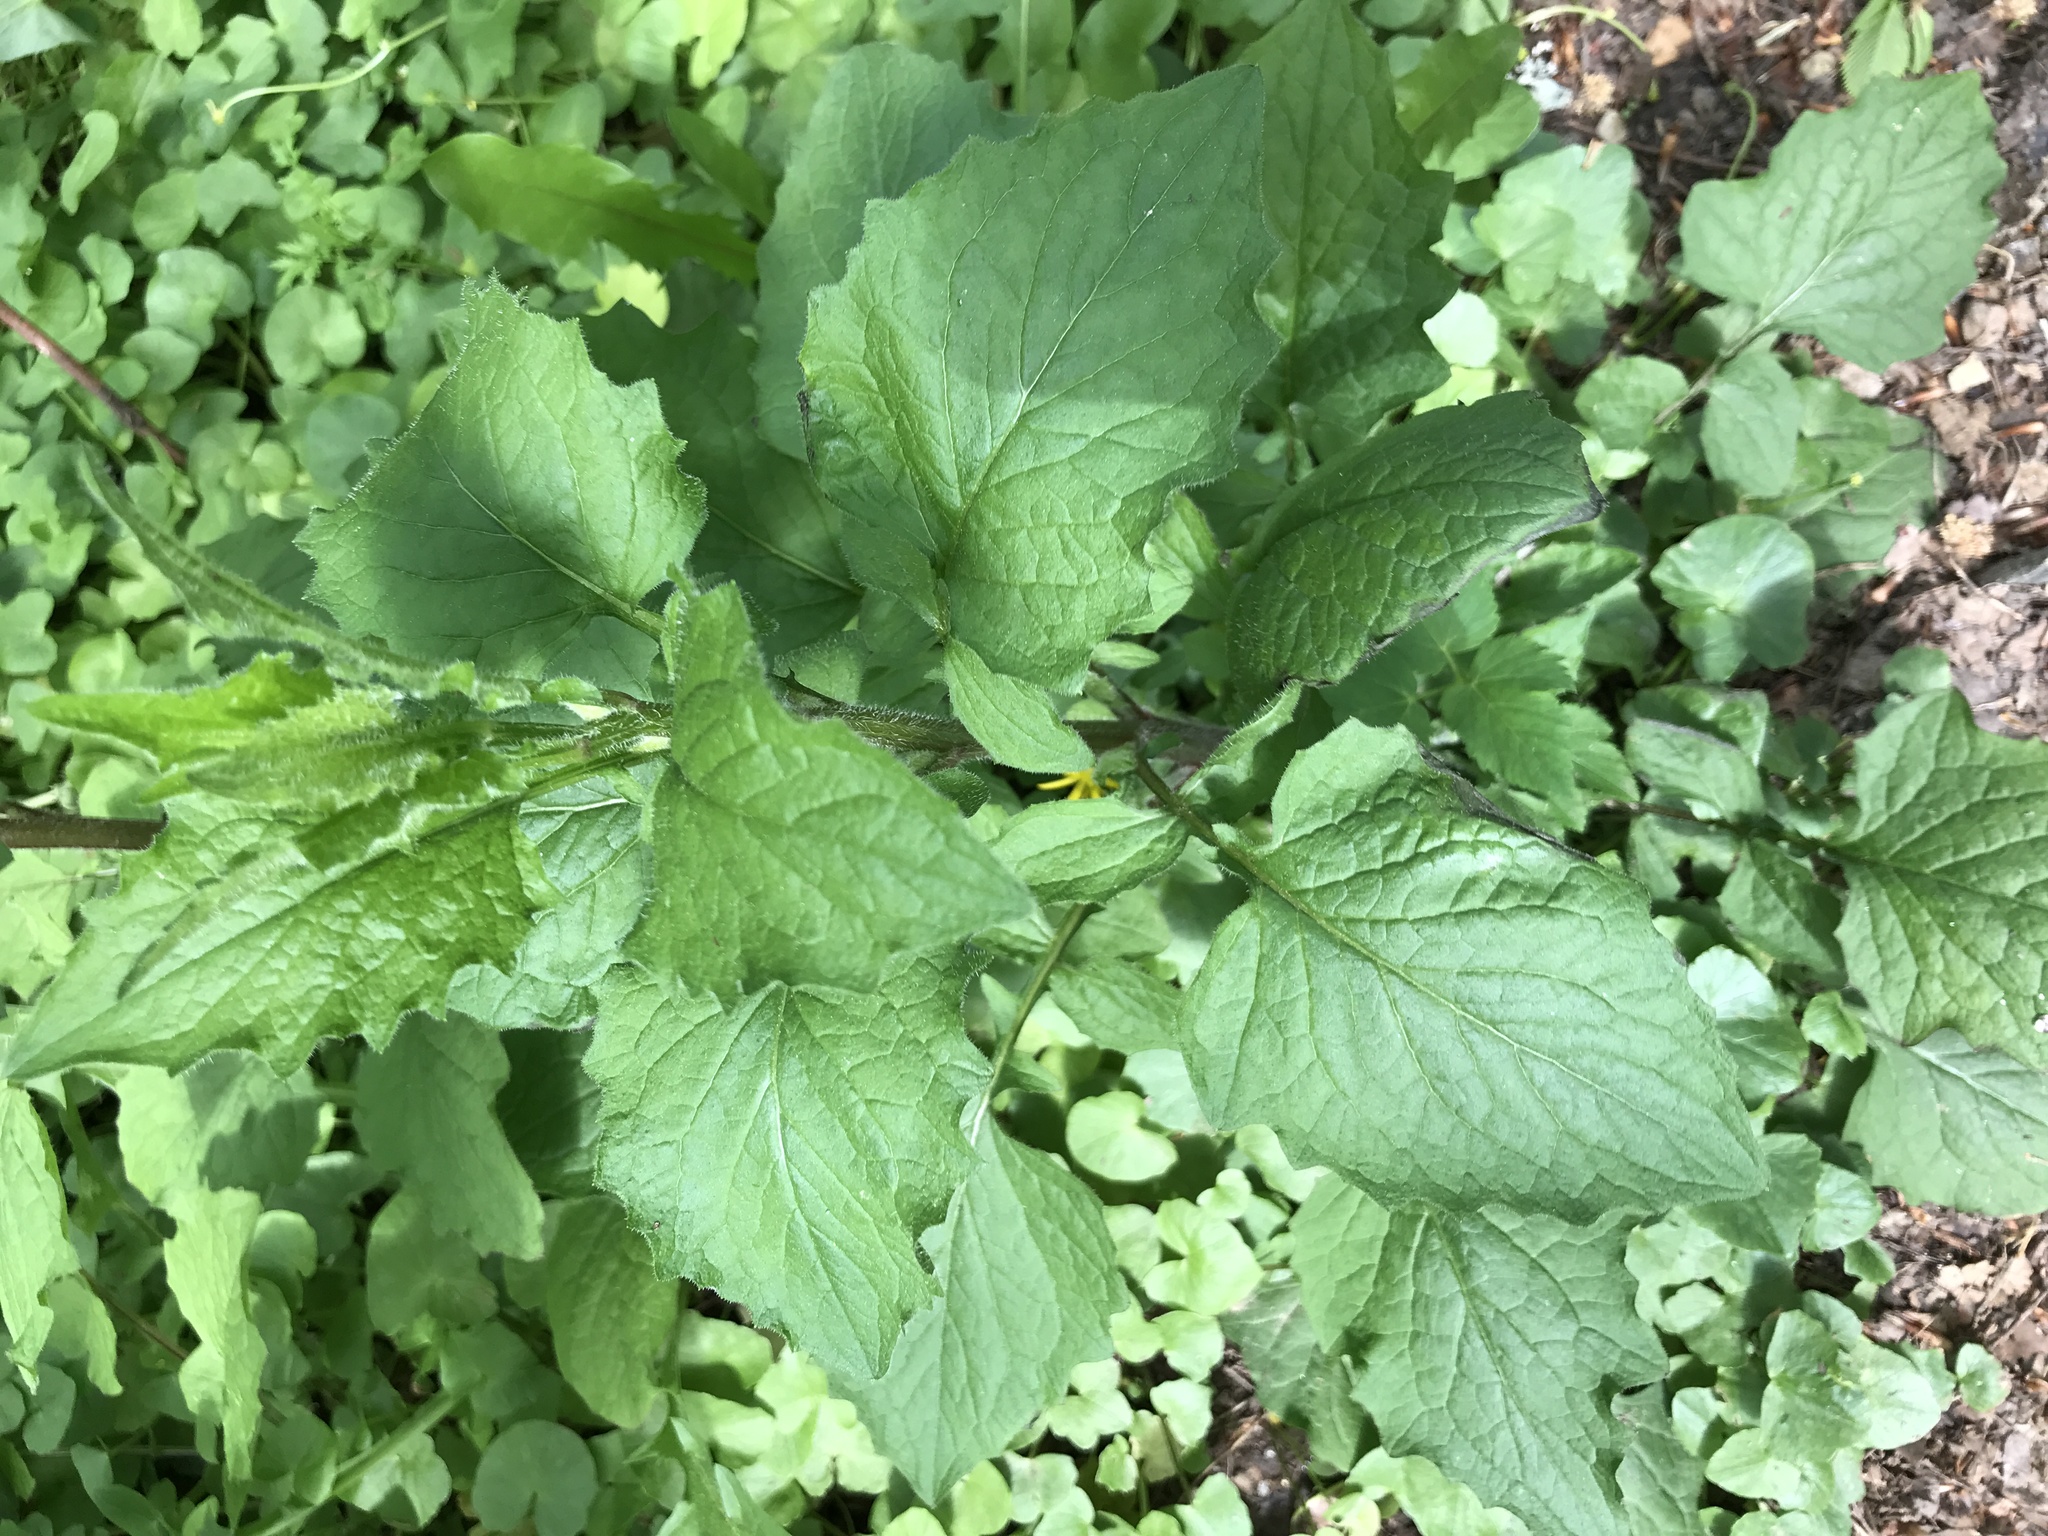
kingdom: Plantae
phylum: Tracheophyta
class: Magnoliopsida
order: Asterales
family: Asteraceae
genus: Lapsana
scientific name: Lapsana communis
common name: Nipplewort
